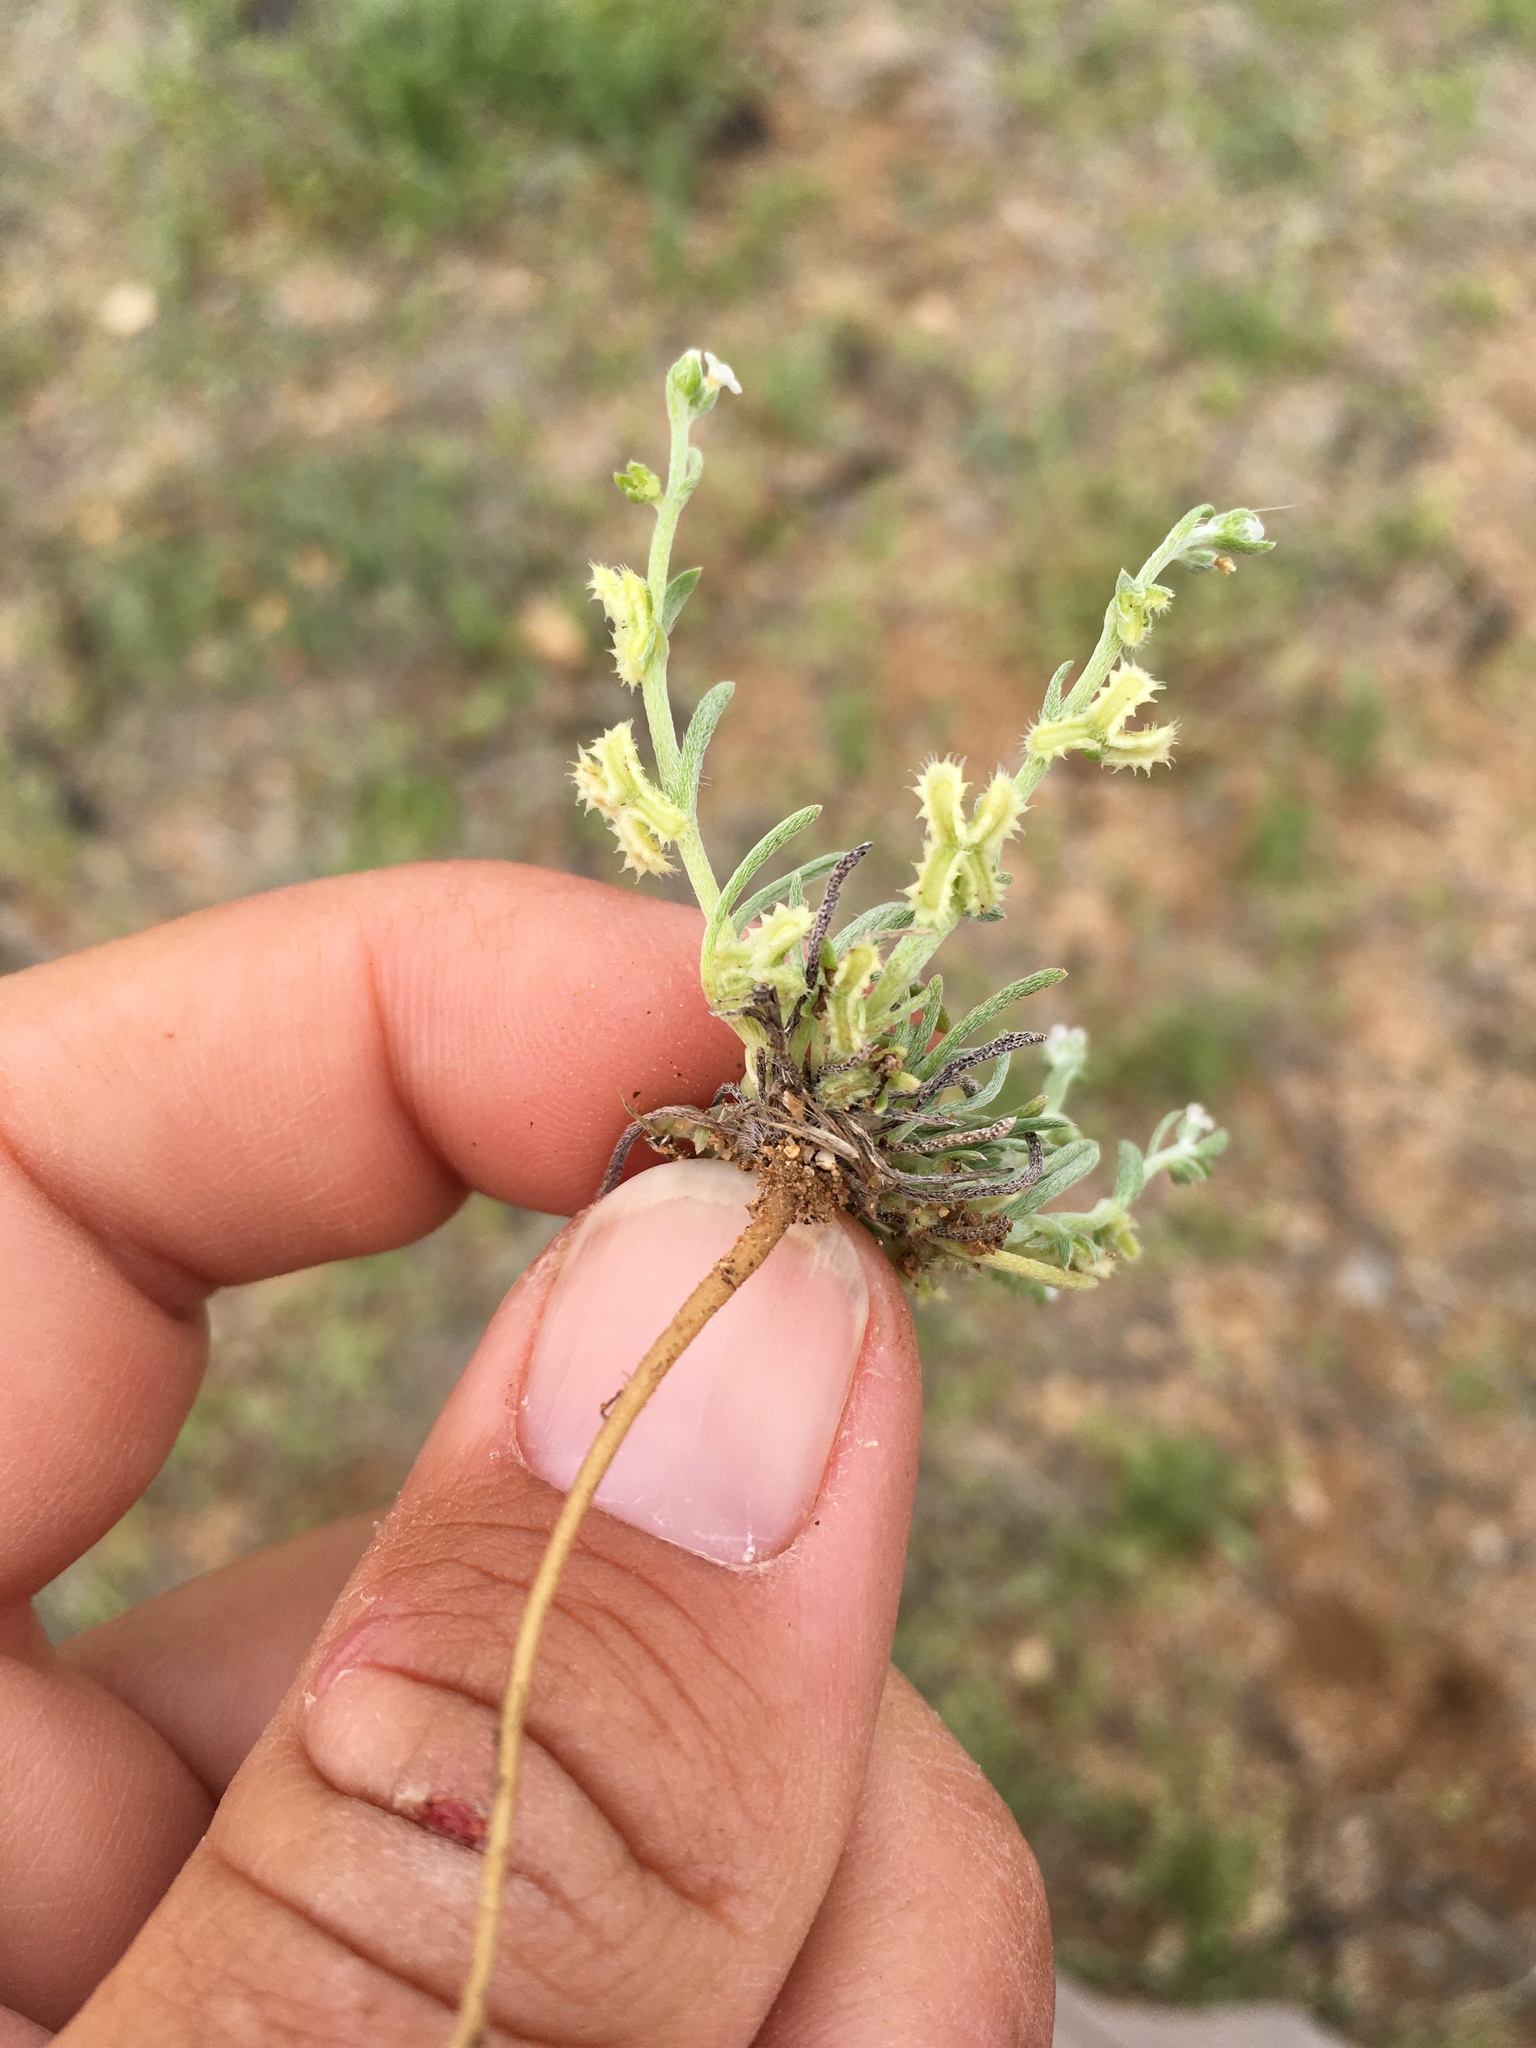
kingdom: Plantae
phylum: Tracheophyta
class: Magnoliopsida
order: Boraginales
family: Boraginaceae
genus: Pectocarya
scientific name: Pectocarya platycarpa
